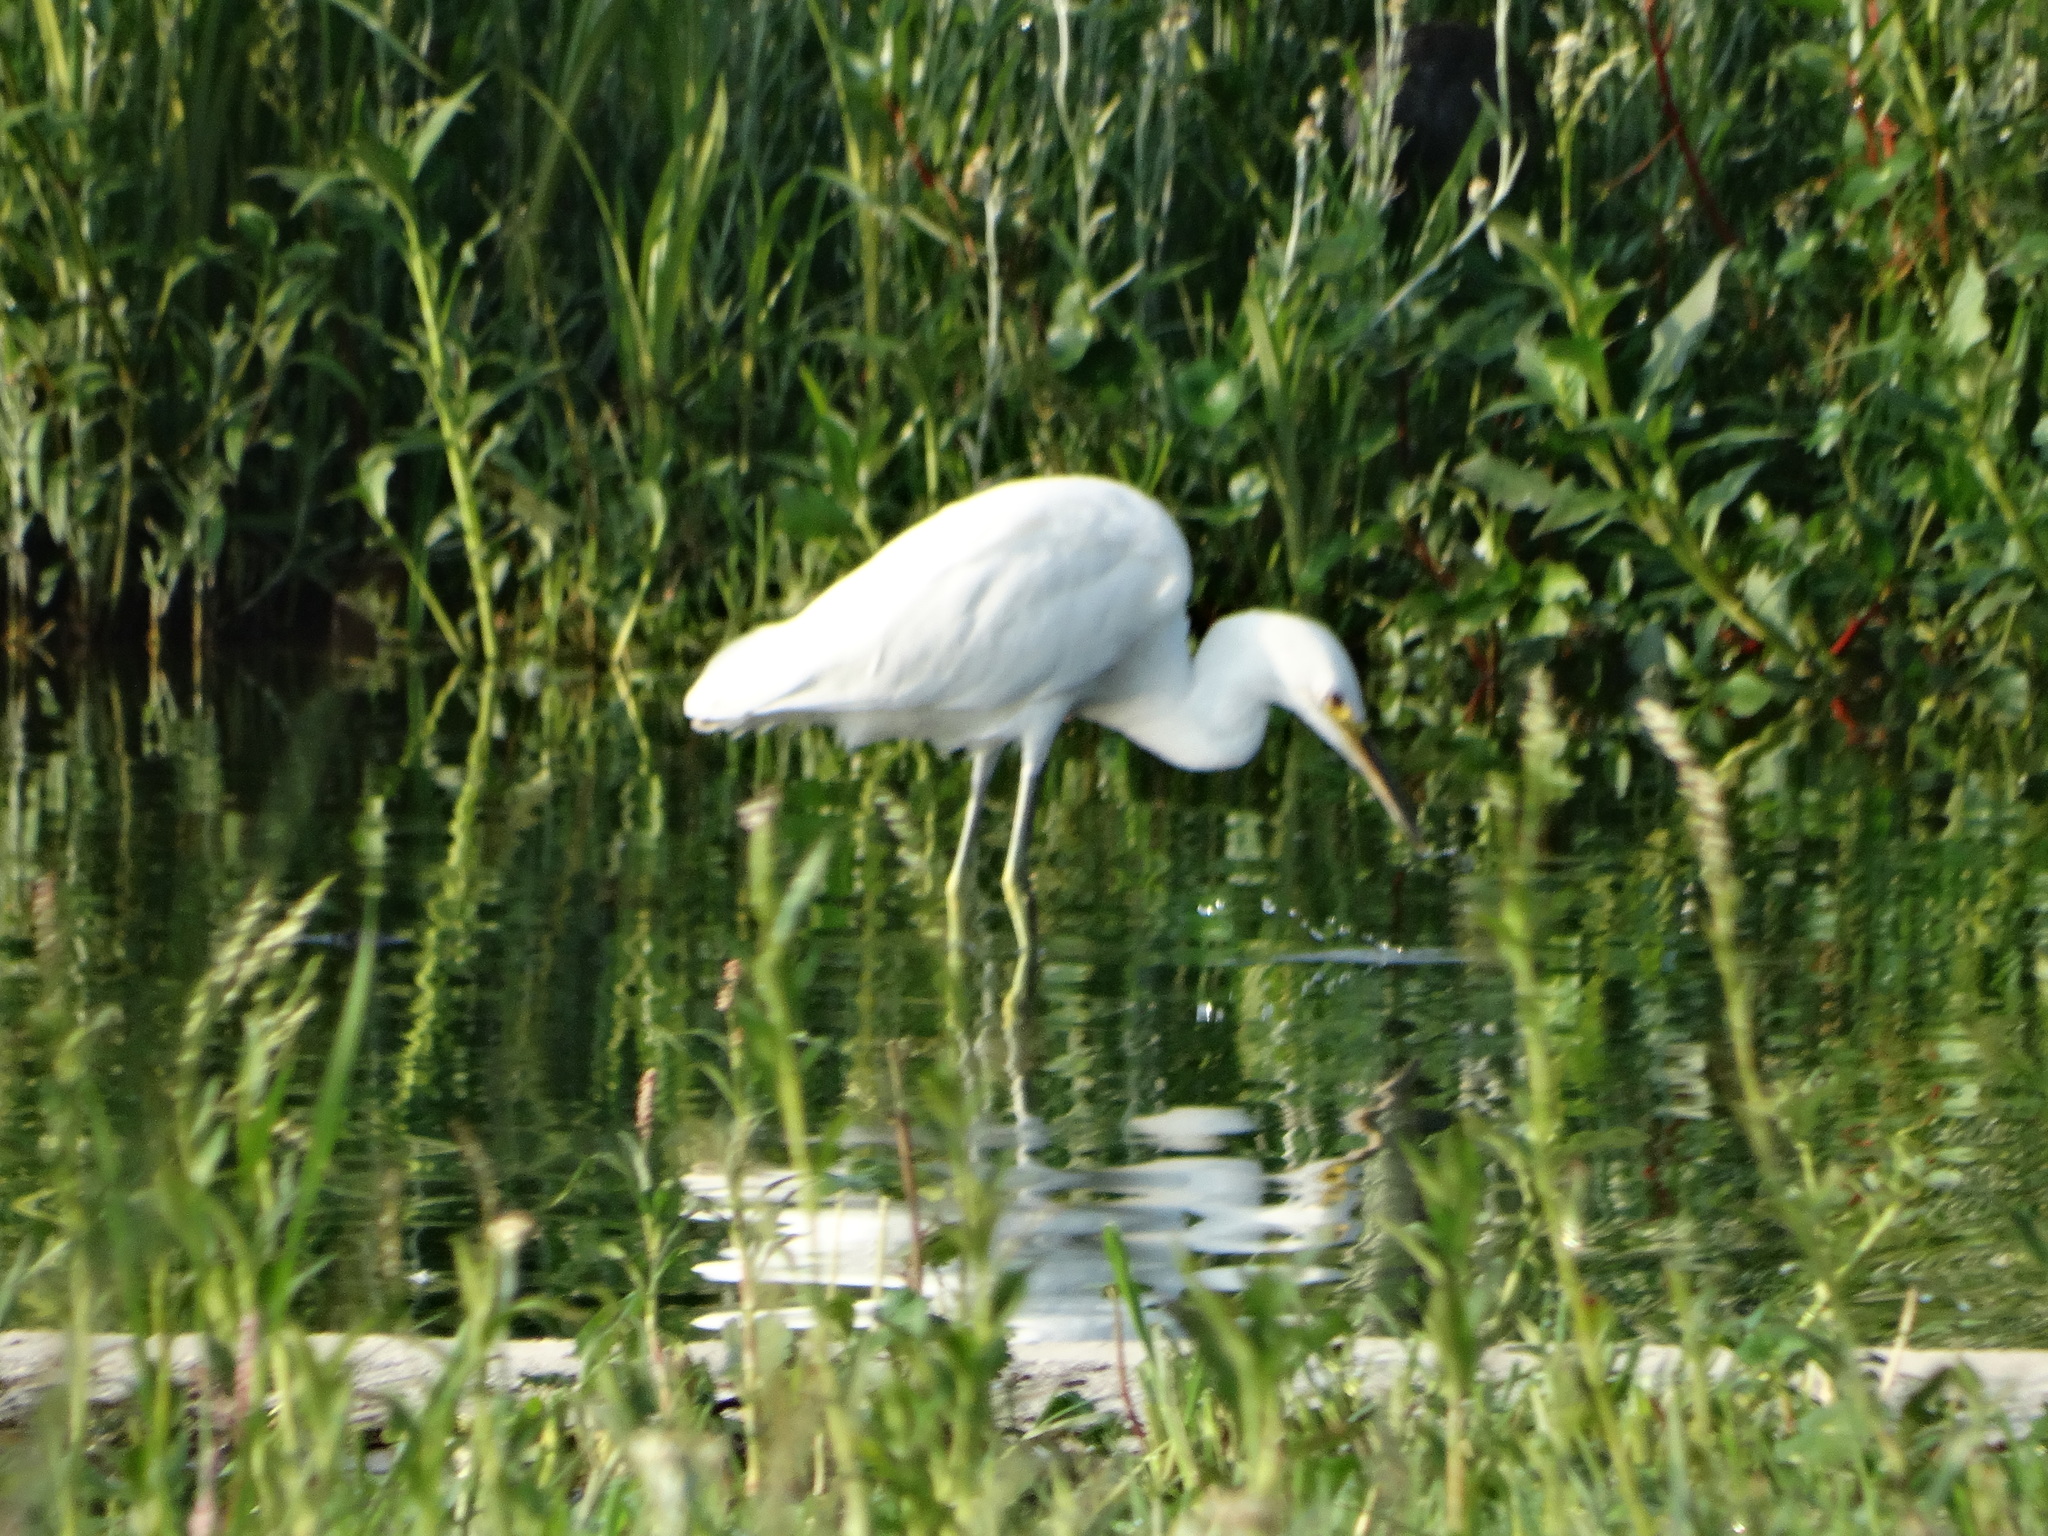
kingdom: Animalia
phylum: Chordata
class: Aves
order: Pelecaniformes
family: Ardeidae
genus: Egretta
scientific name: Egretta thula
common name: Snowy egret
